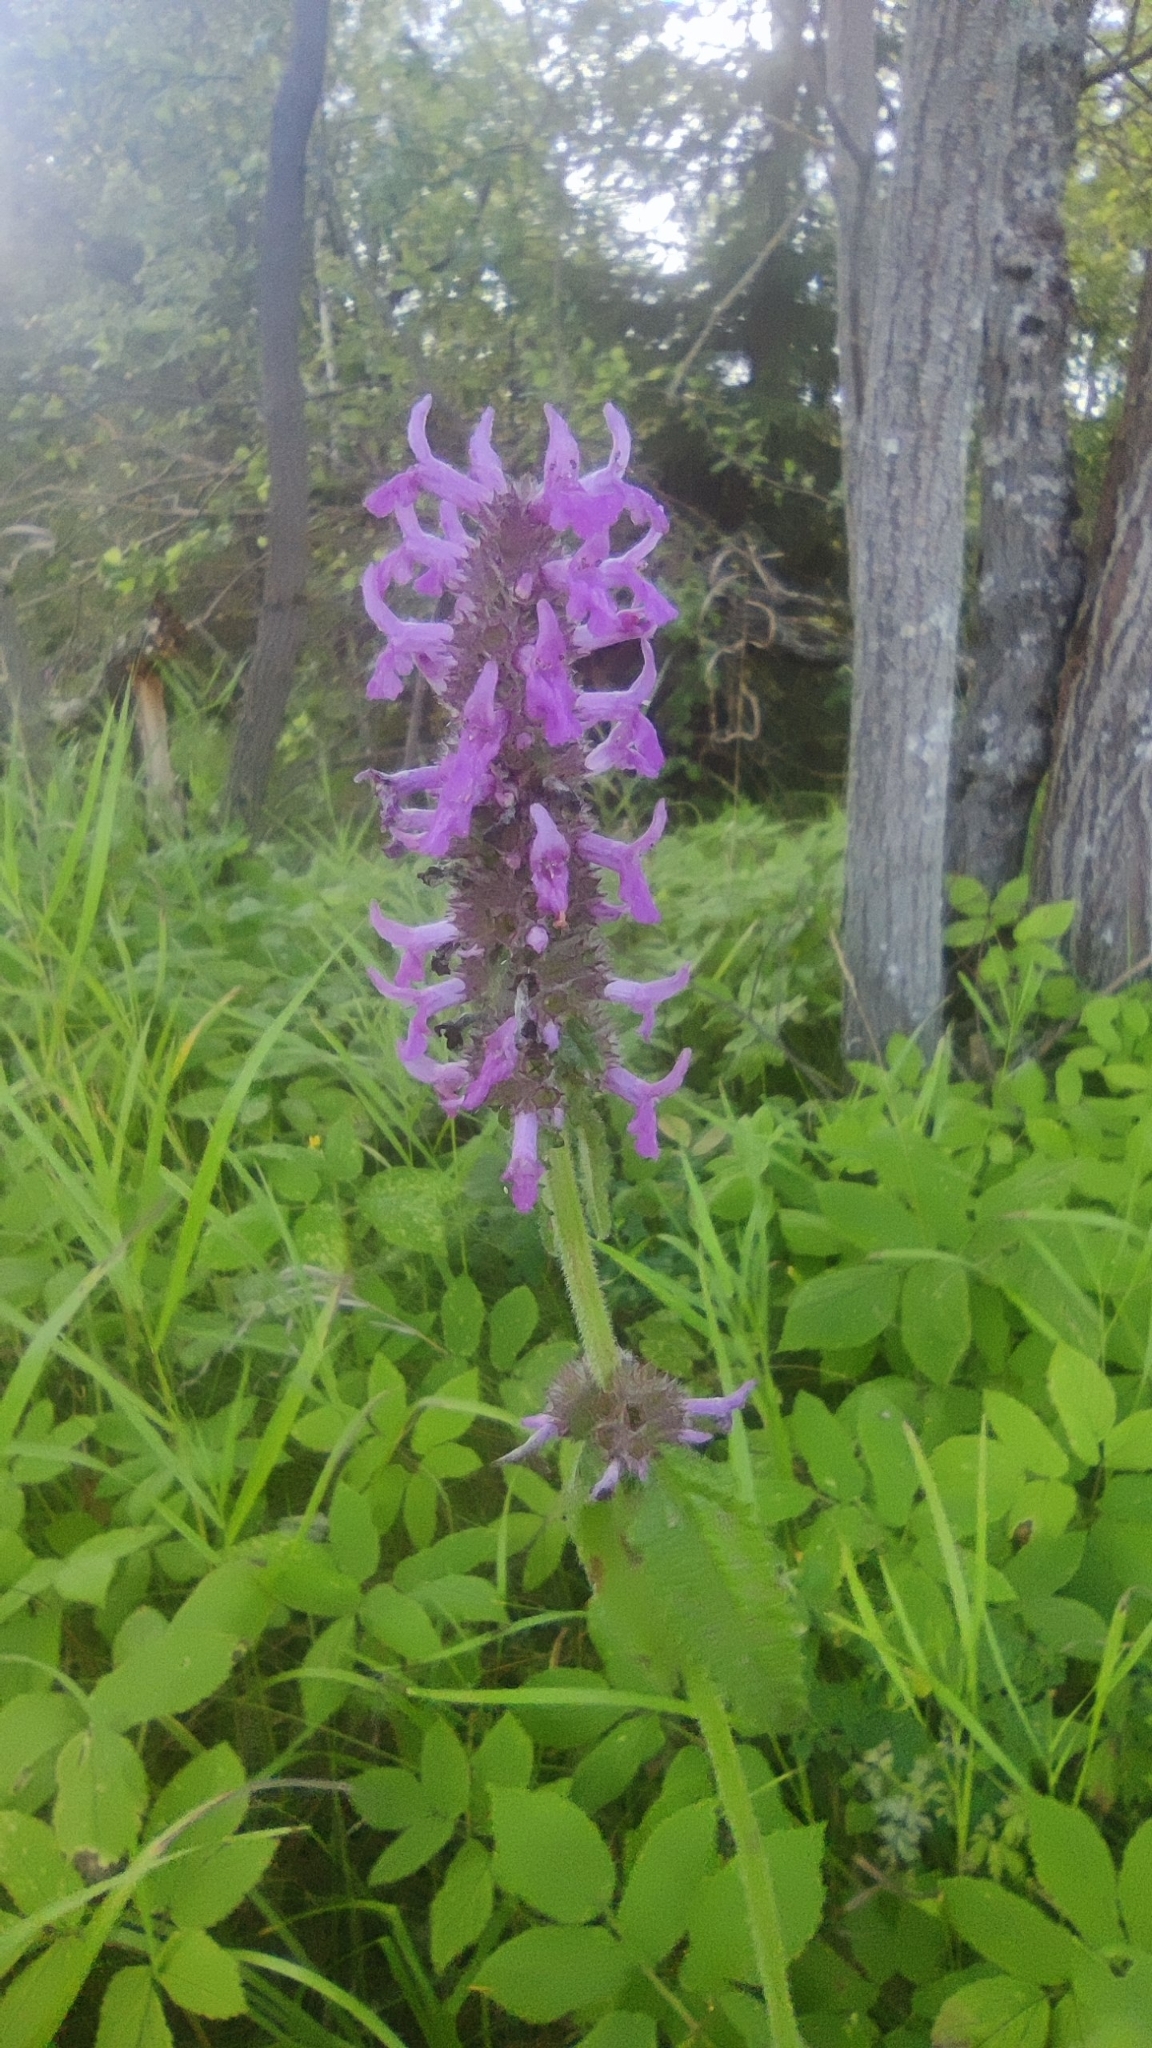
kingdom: Plantae
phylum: Tracheophyta
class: Magnoliopsida
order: Lamiales
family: Lamiaceae
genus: Betonica
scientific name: Betonica officinalis
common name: Bishop's-wort
